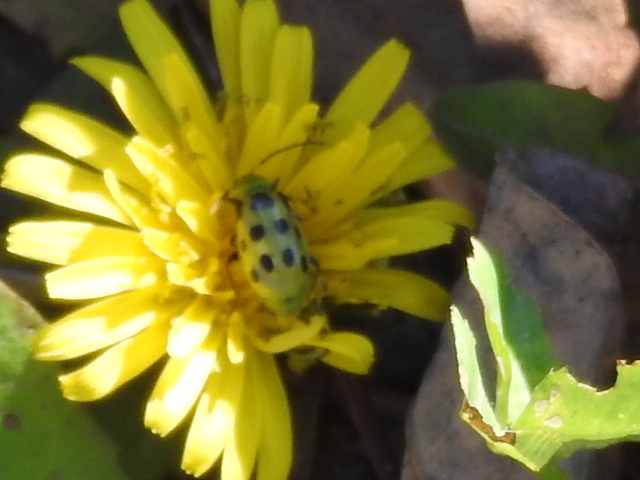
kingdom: Animalia
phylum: Arthropoda
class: Insecta
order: Coleoptera
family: Chrysomelidae
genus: Diabrotica
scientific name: Diabrotica undecimpunctata
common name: Spotted cucumber beetle
